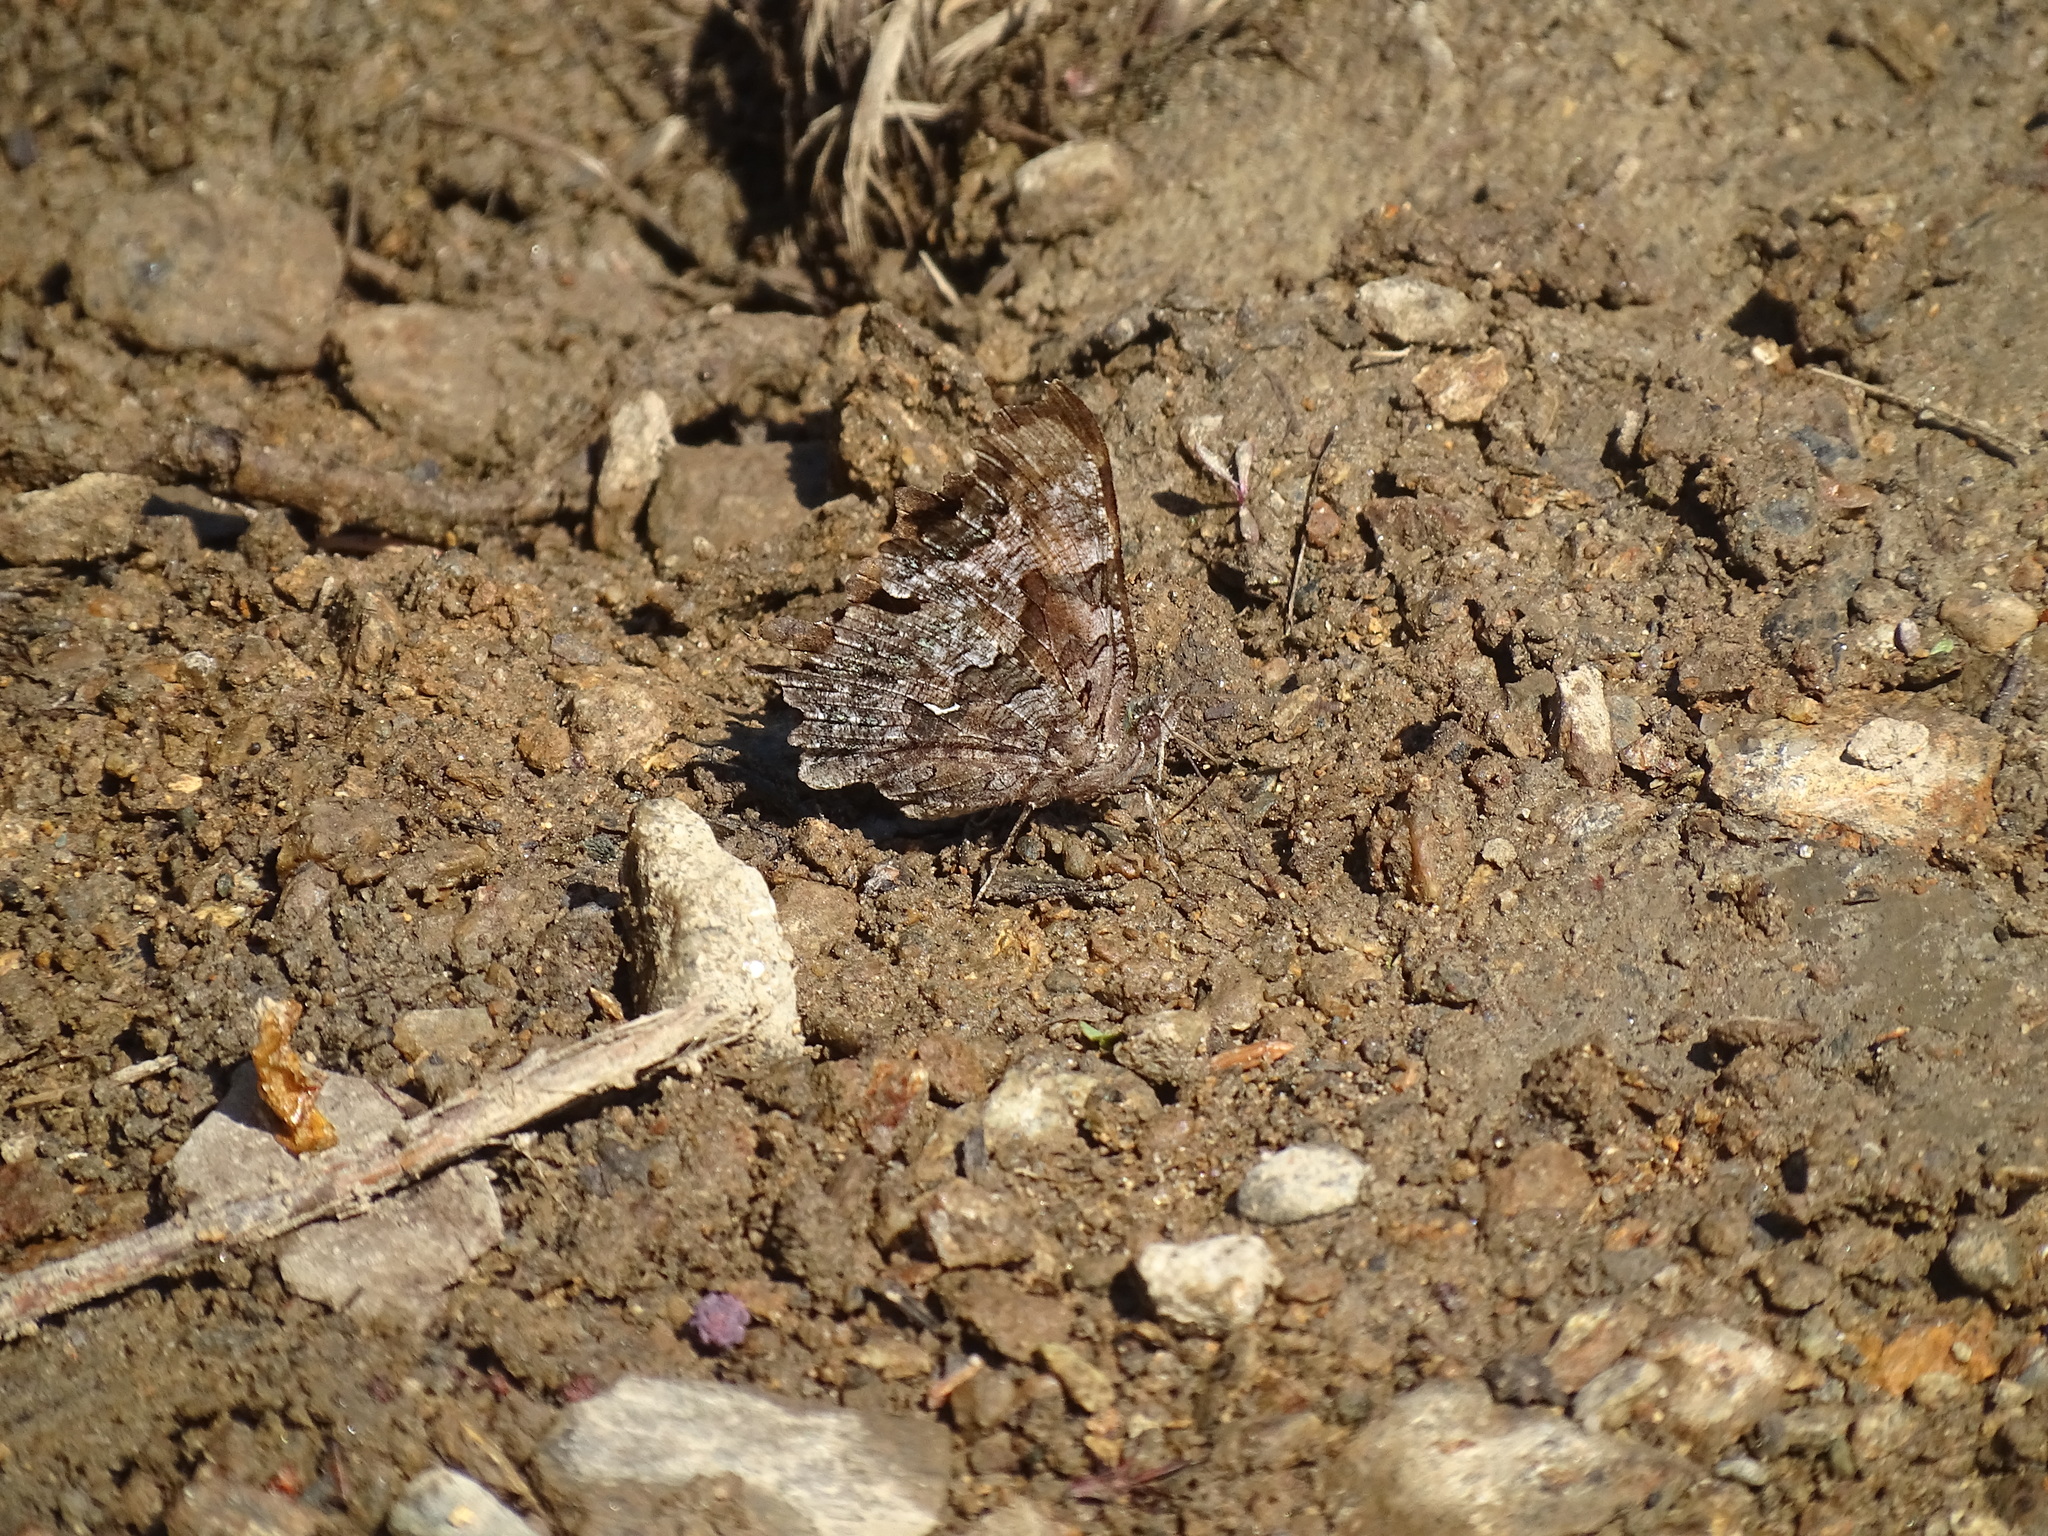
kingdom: Animalia
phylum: Arthropoda
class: Insecta
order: Lepidoptera
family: Nymphalidae
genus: Polygonia
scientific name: Polygonia faunus
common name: Green comma
